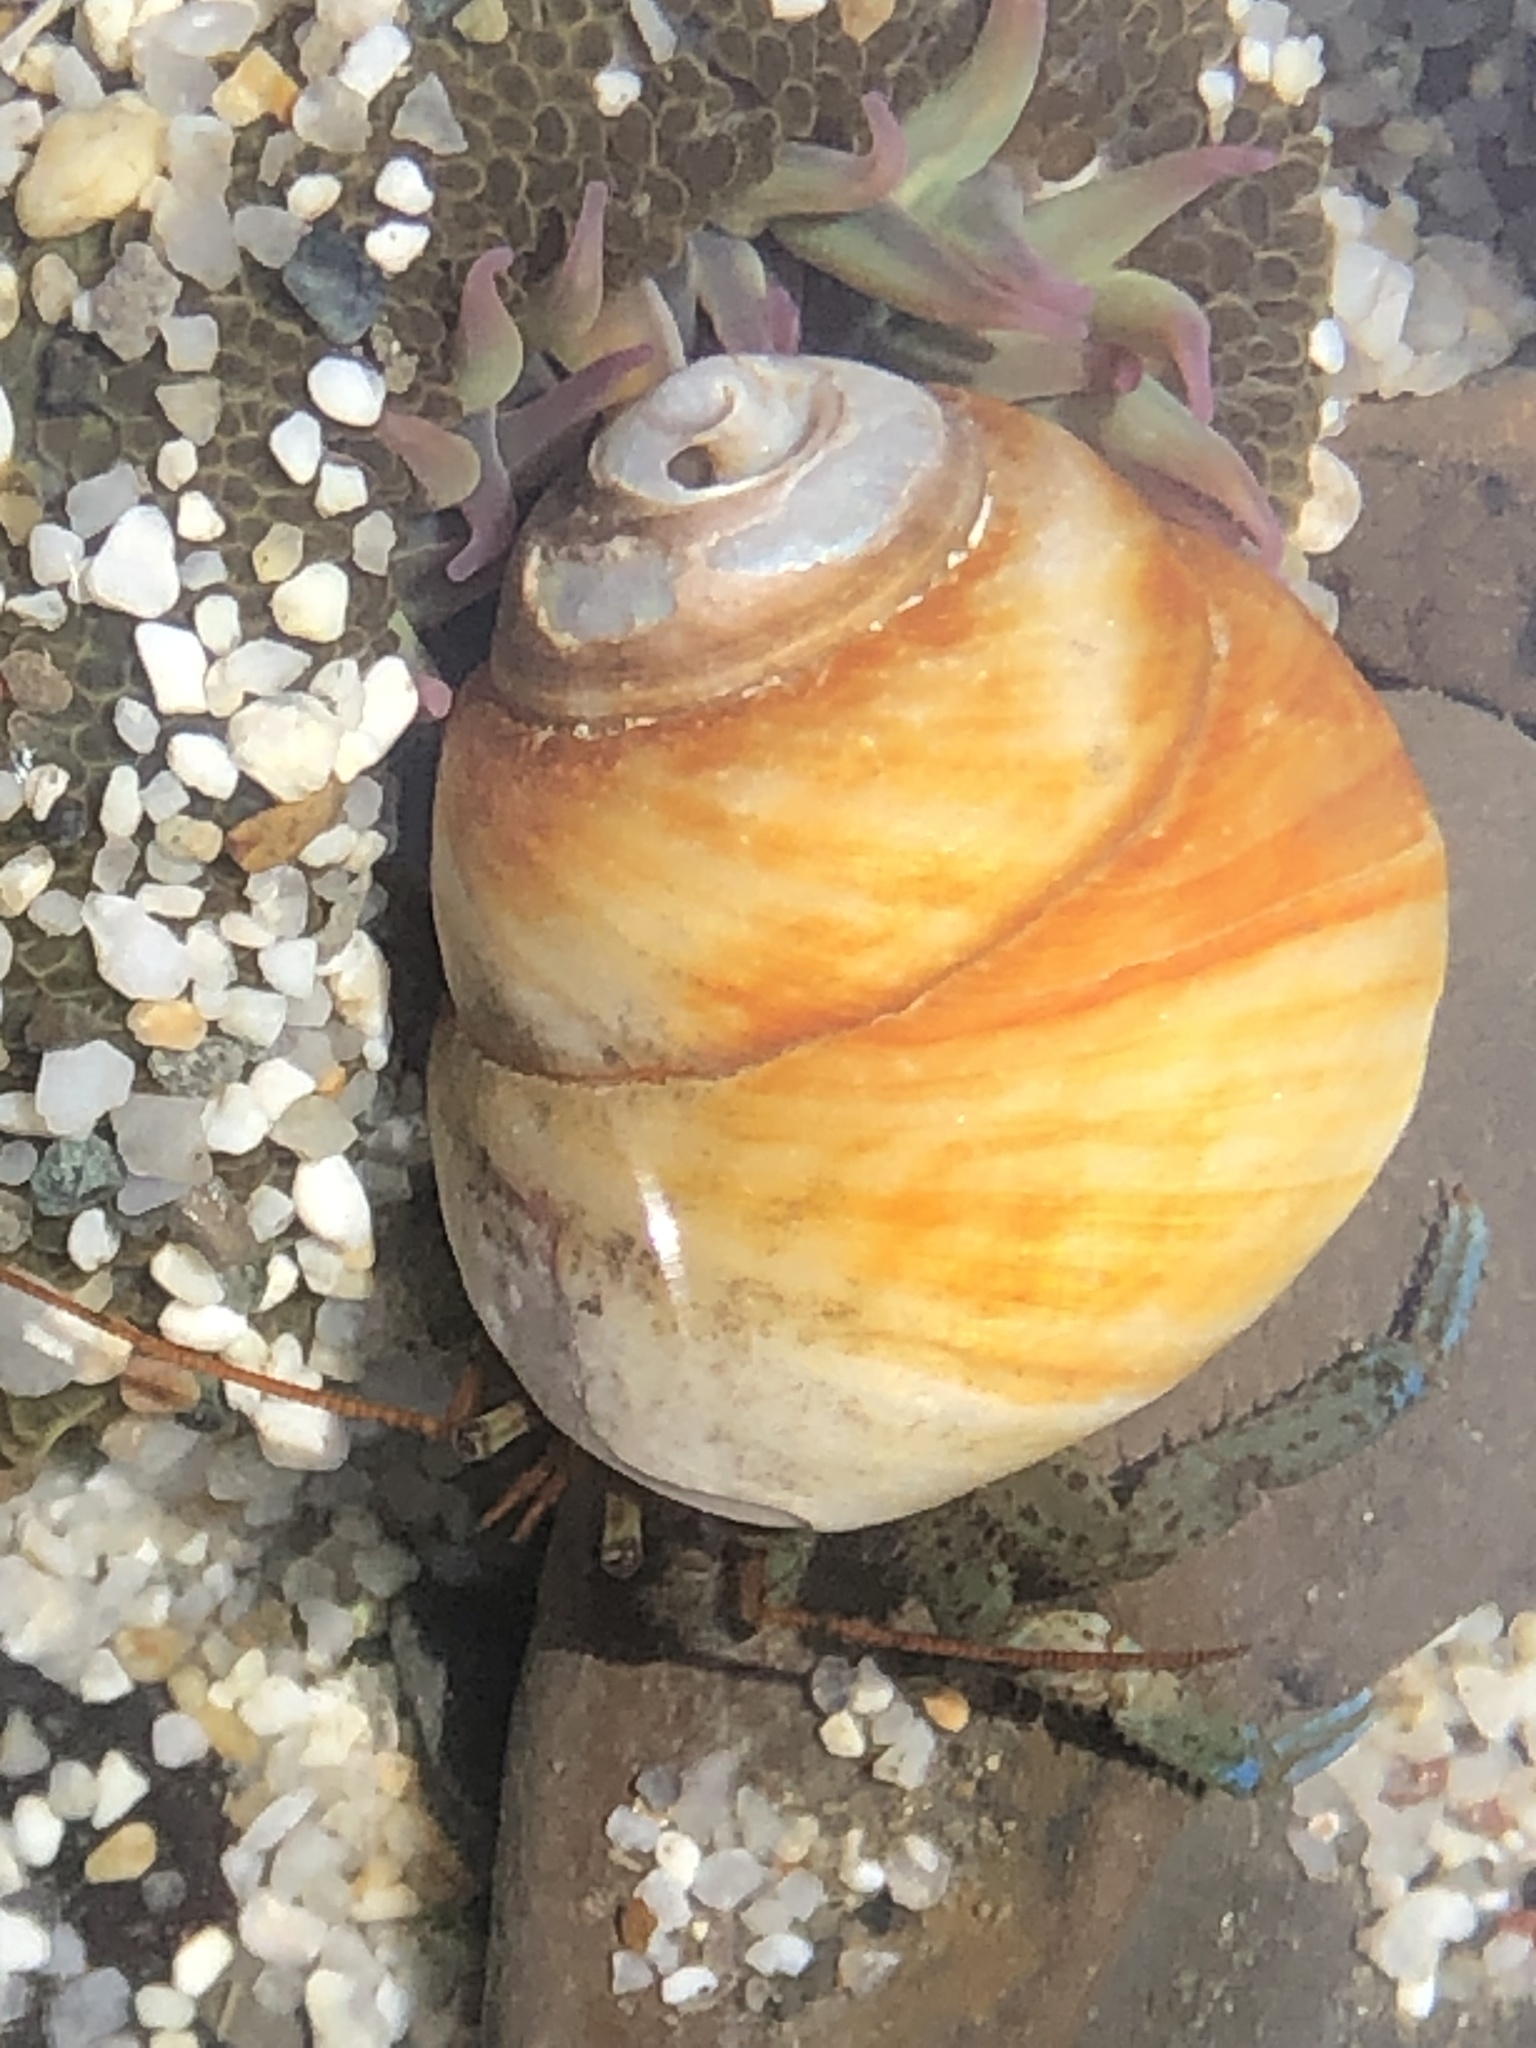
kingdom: Animalia
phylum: Arthropoda
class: Malacostraca
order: Decapoda
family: Paguridae
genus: Pagurus
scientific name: Pagurus samuelis
